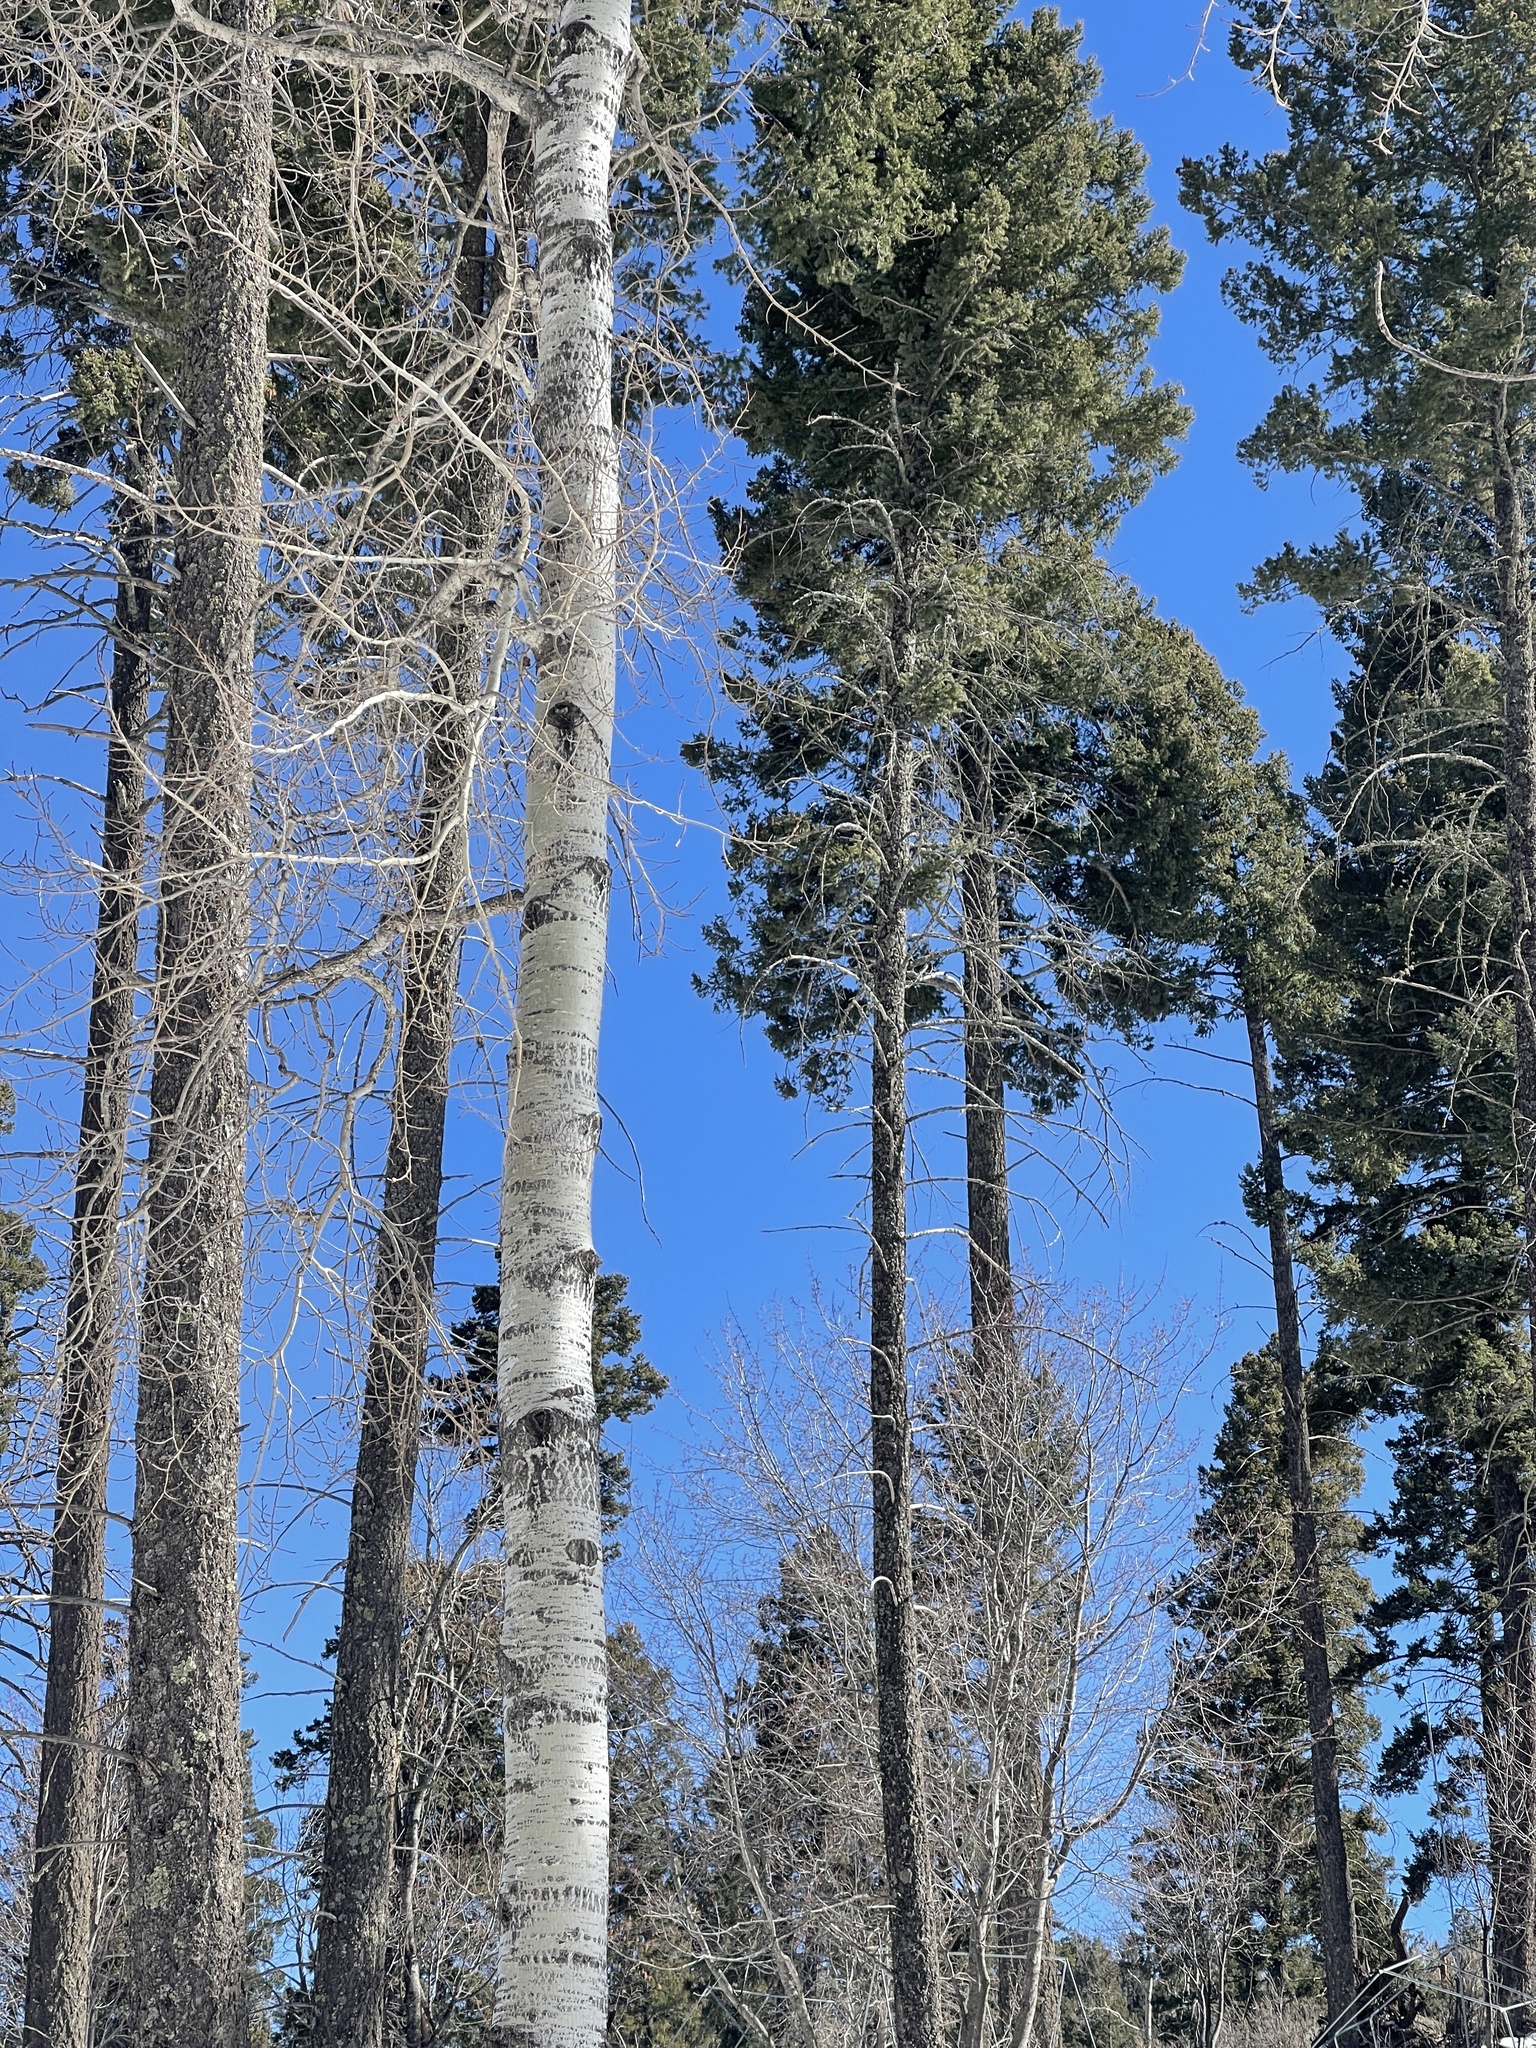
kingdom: Plantae
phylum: Tracheophyta
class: Magnoliopsida
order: Malpighiales
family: Salicaceae
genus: Populus
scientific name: Populus tremuloides
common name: Quaking aspen
